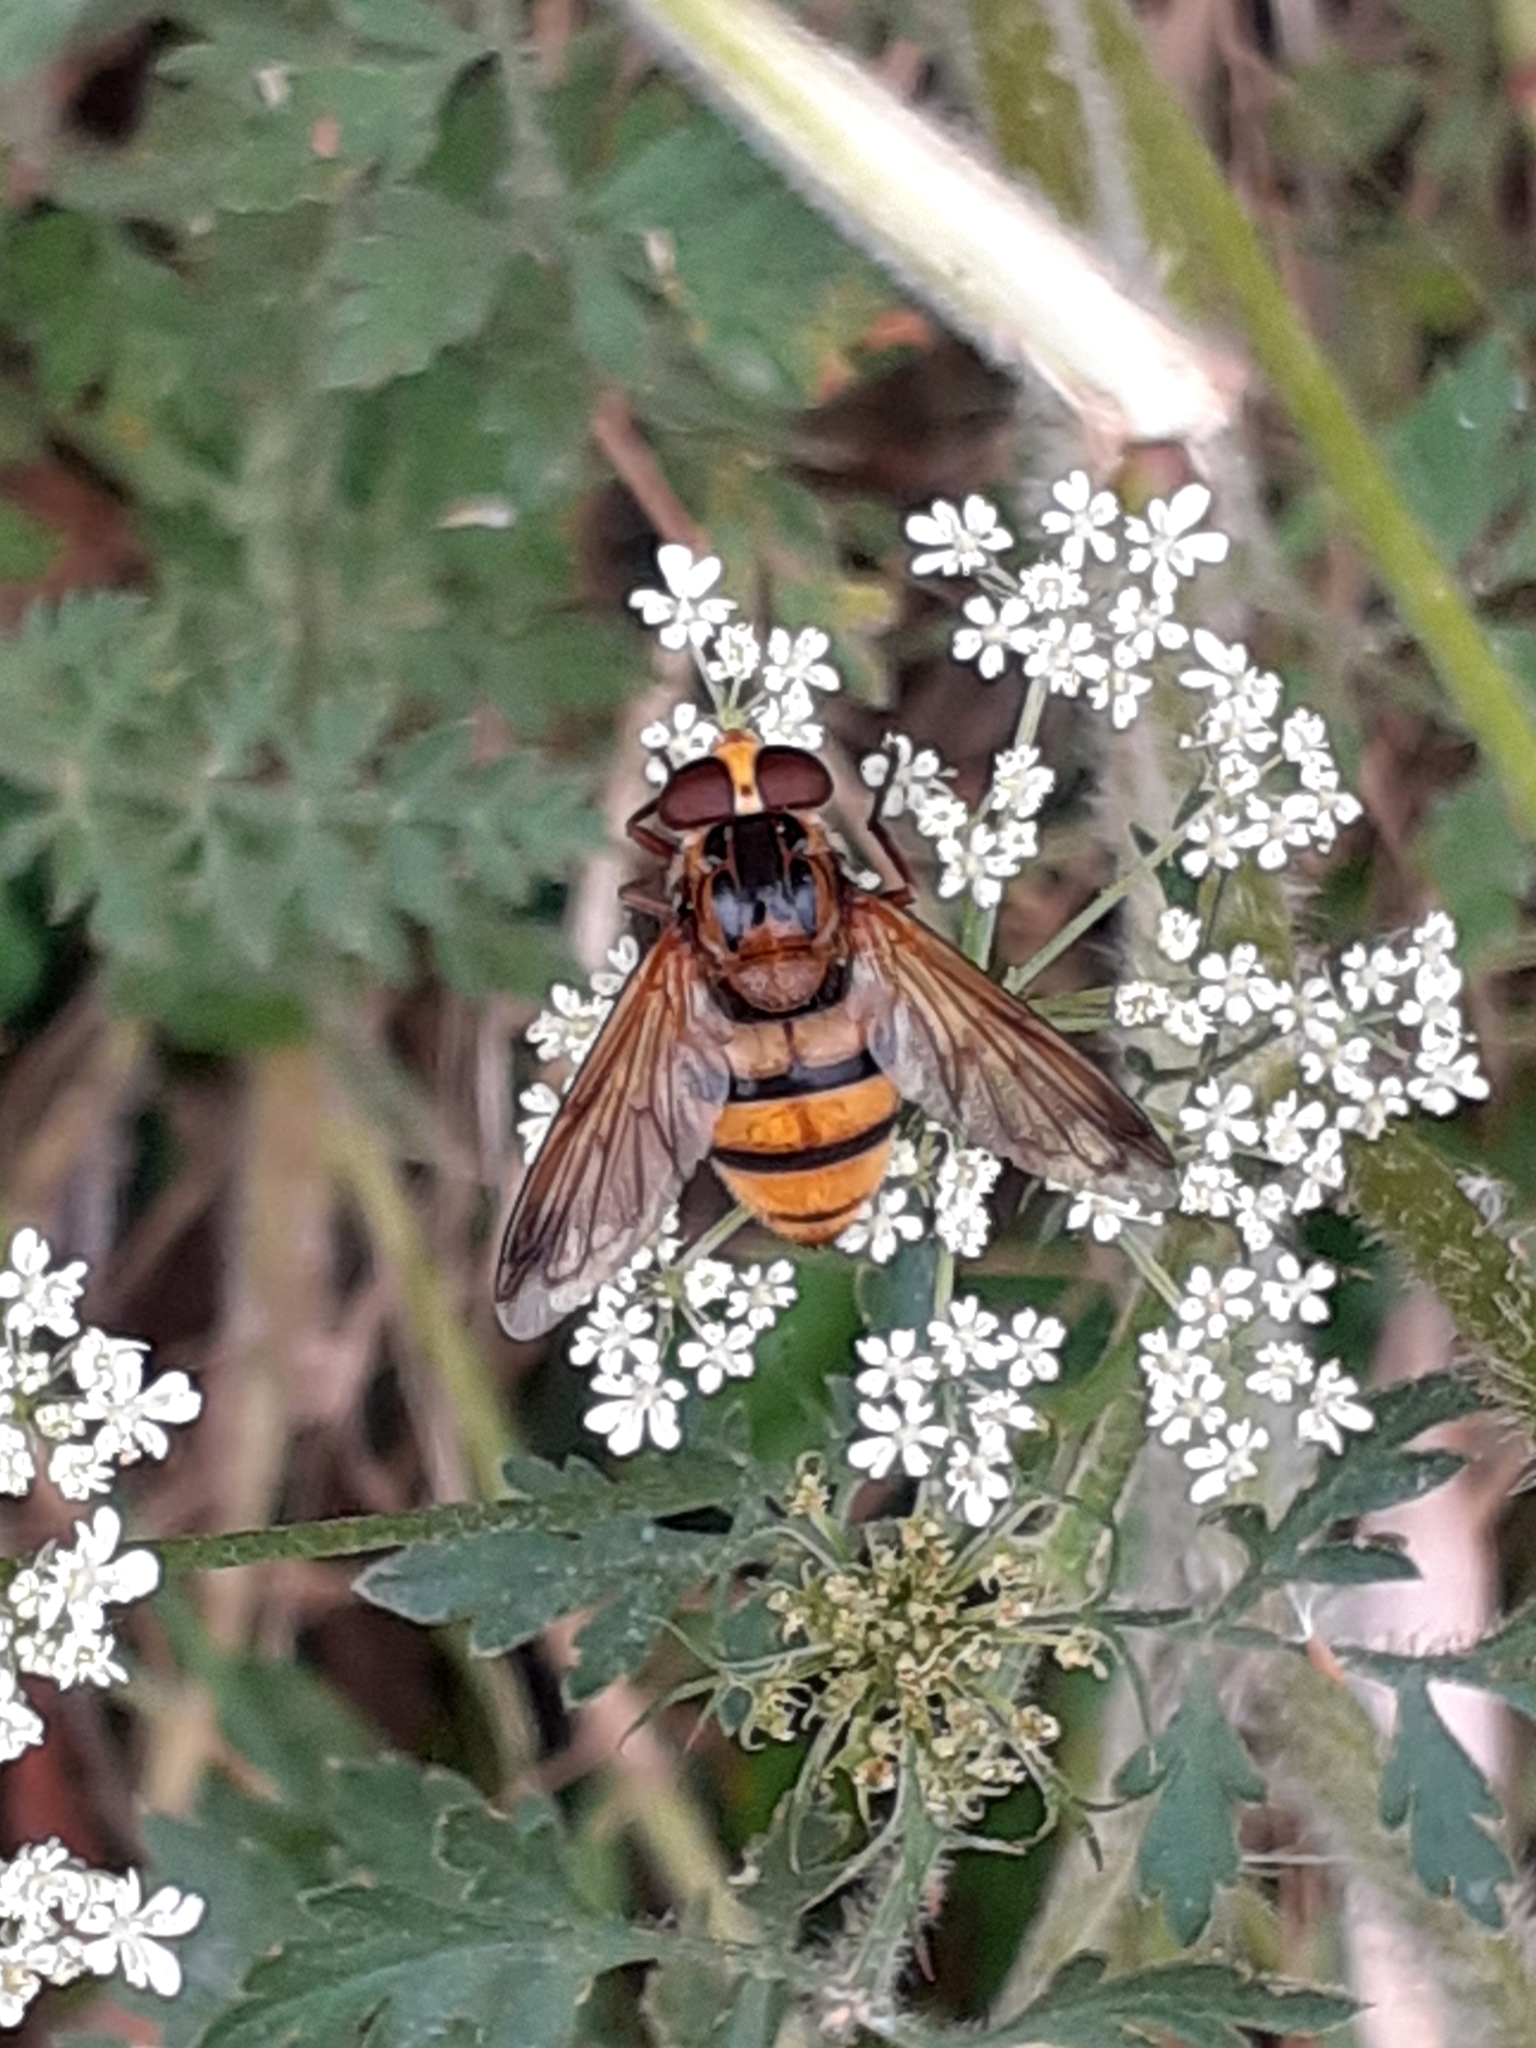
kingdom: Animalia
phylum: Arthropoda
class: Insecta
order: Diptera
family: Syrphidae
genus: Volucella
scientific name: Volucella inanis
